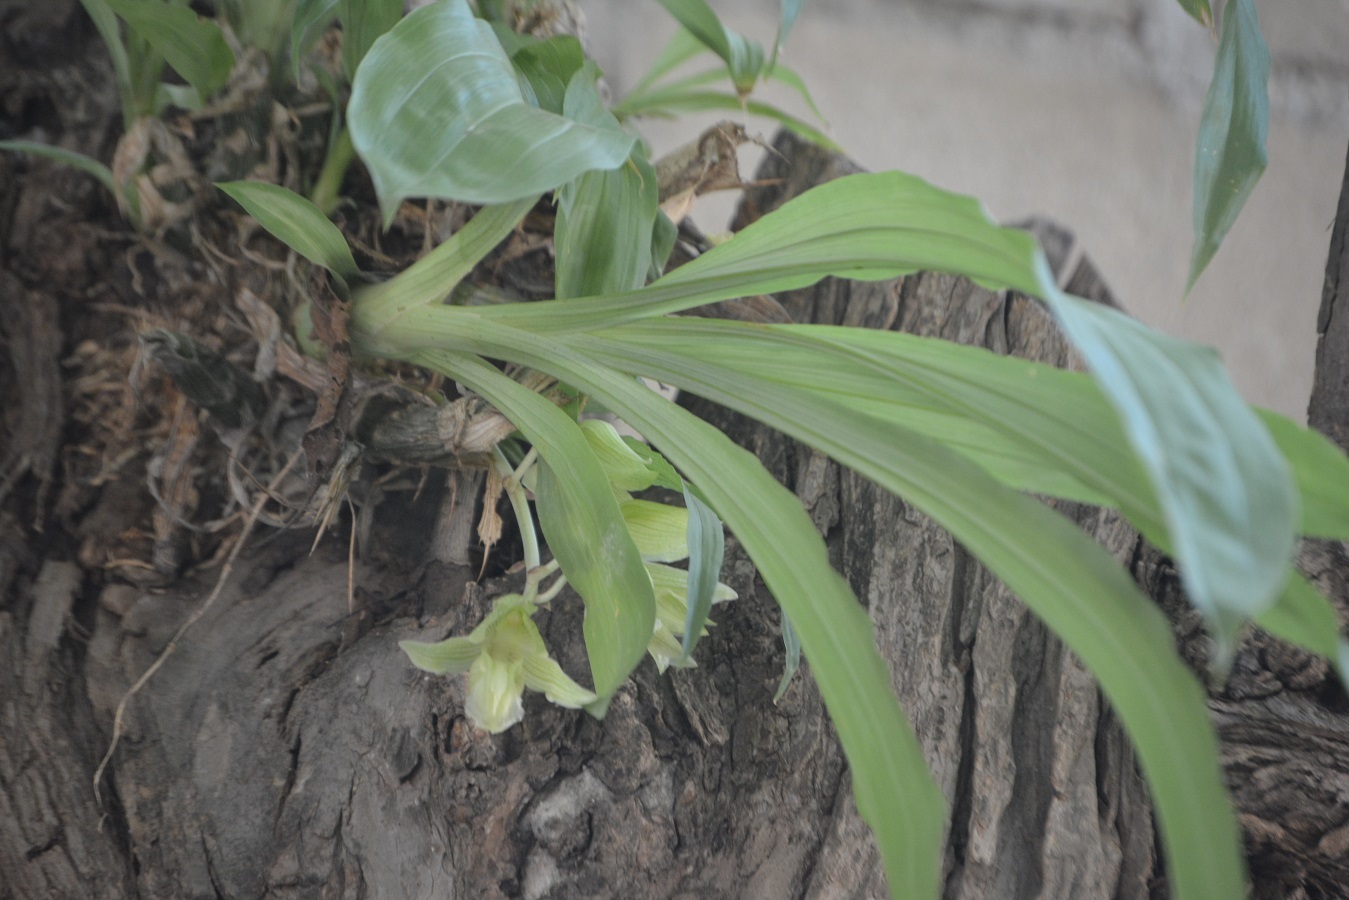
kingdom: Plantae
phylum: Tracheophyta
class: Liliopsida
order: Asparagales
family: Orchidaceae
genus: Clowesia
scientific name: Clowesia dodsoniana
